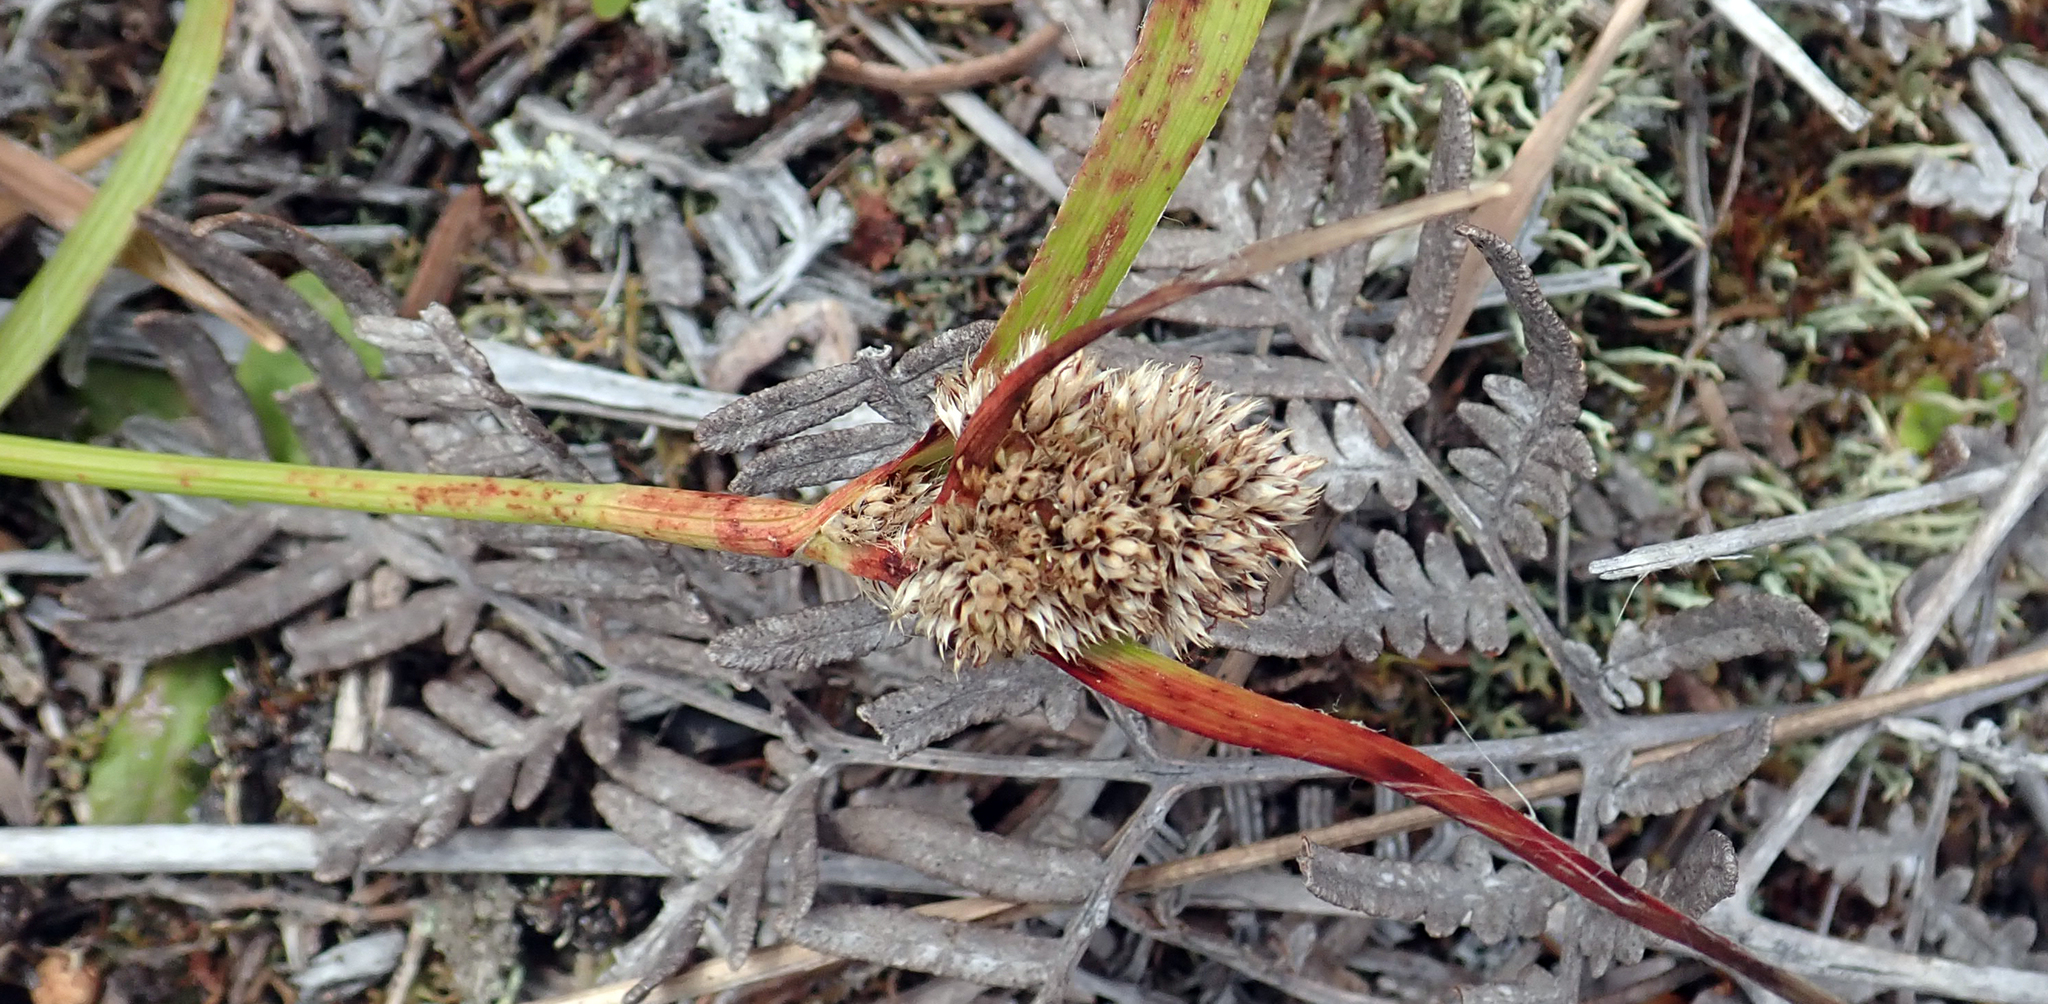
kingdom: Plantae
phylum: Tracheophyta
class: Liliopsida
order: Poales
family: Juncaceae
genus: Luzula
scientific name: Luzula banksiana
